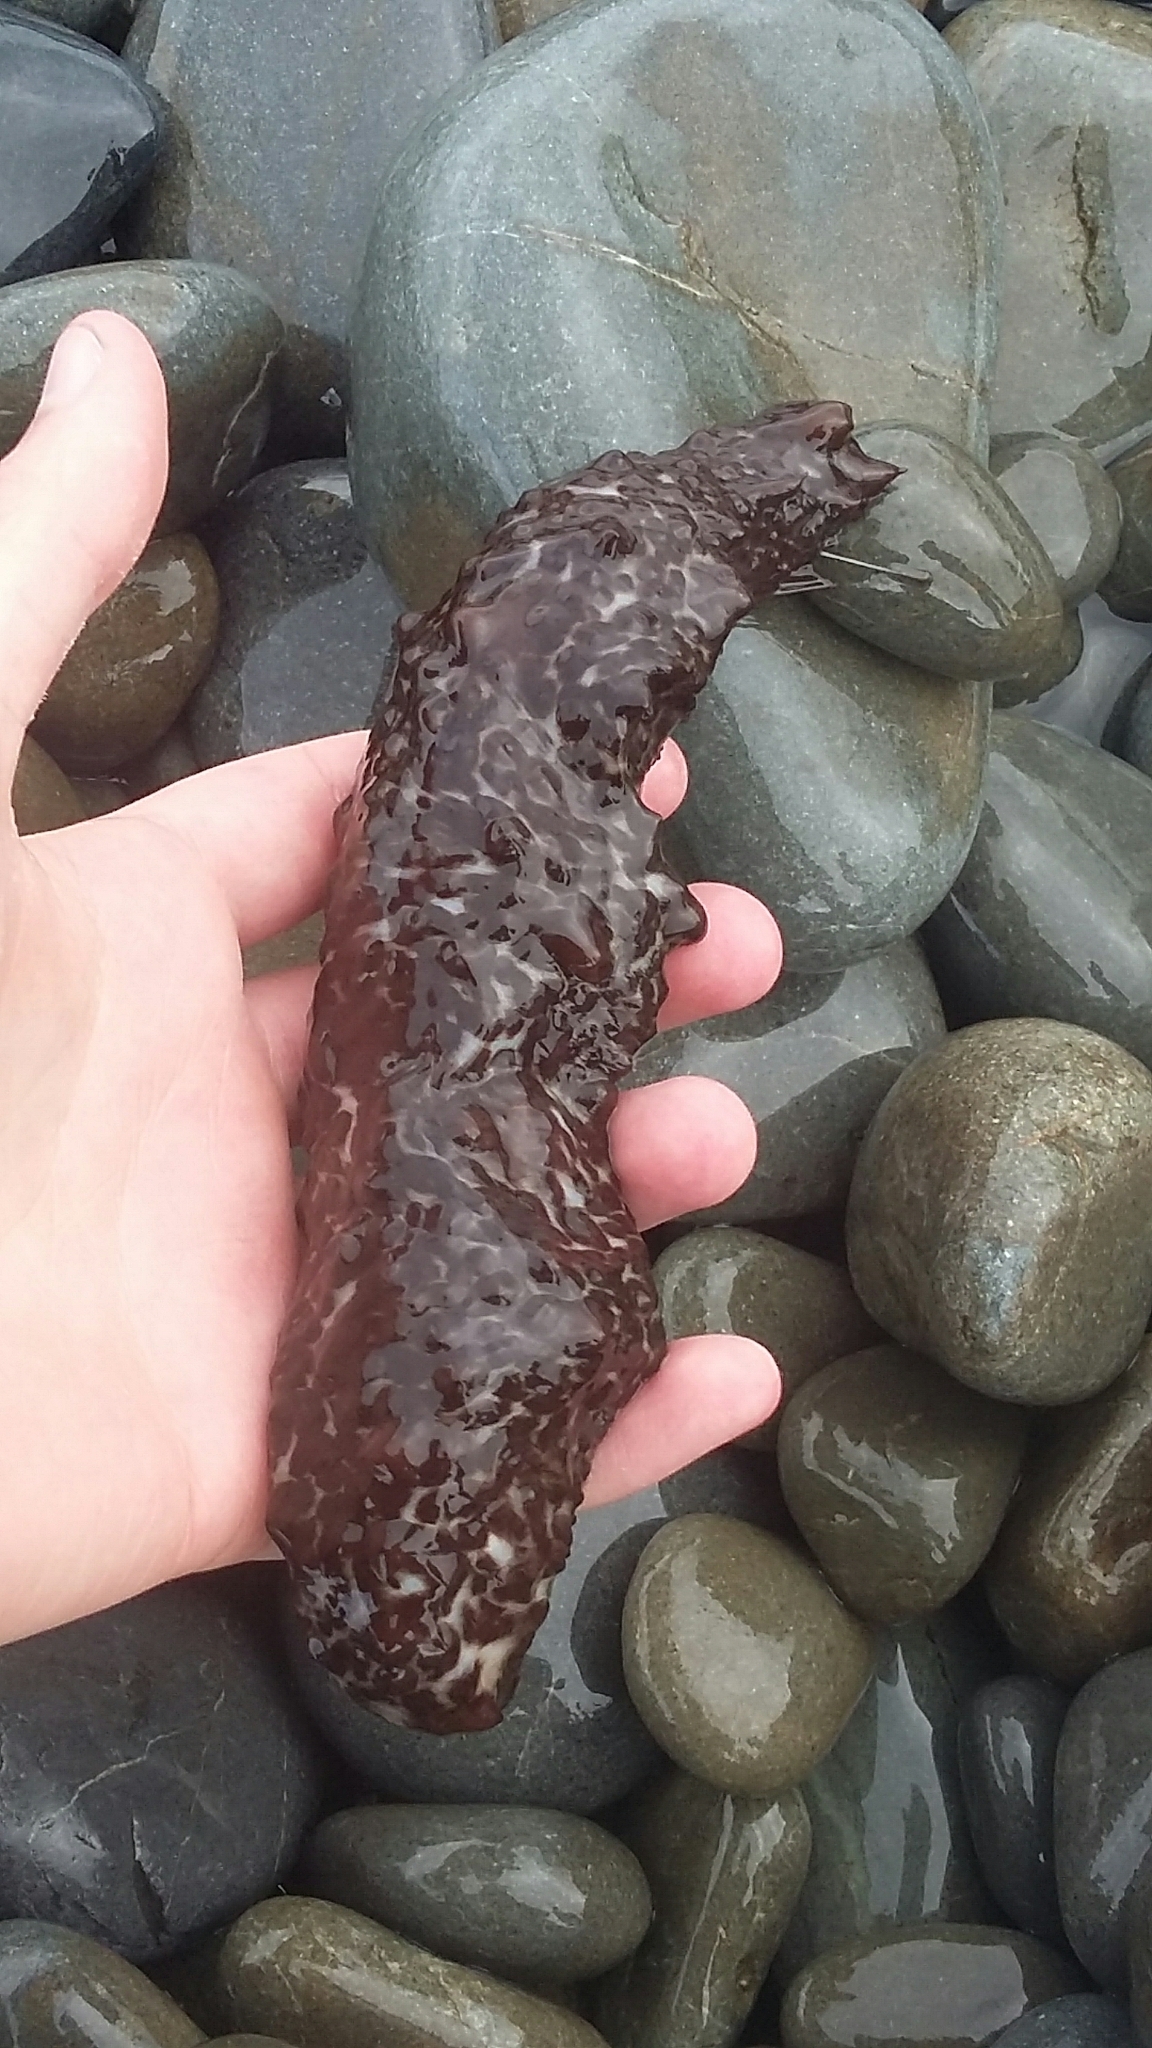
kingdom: Animalia
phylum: Echinodermata
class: Holothuroidea
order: Synallactida
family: Stichopodidae
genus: Australostichopus
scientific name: Australostichopus mollis
